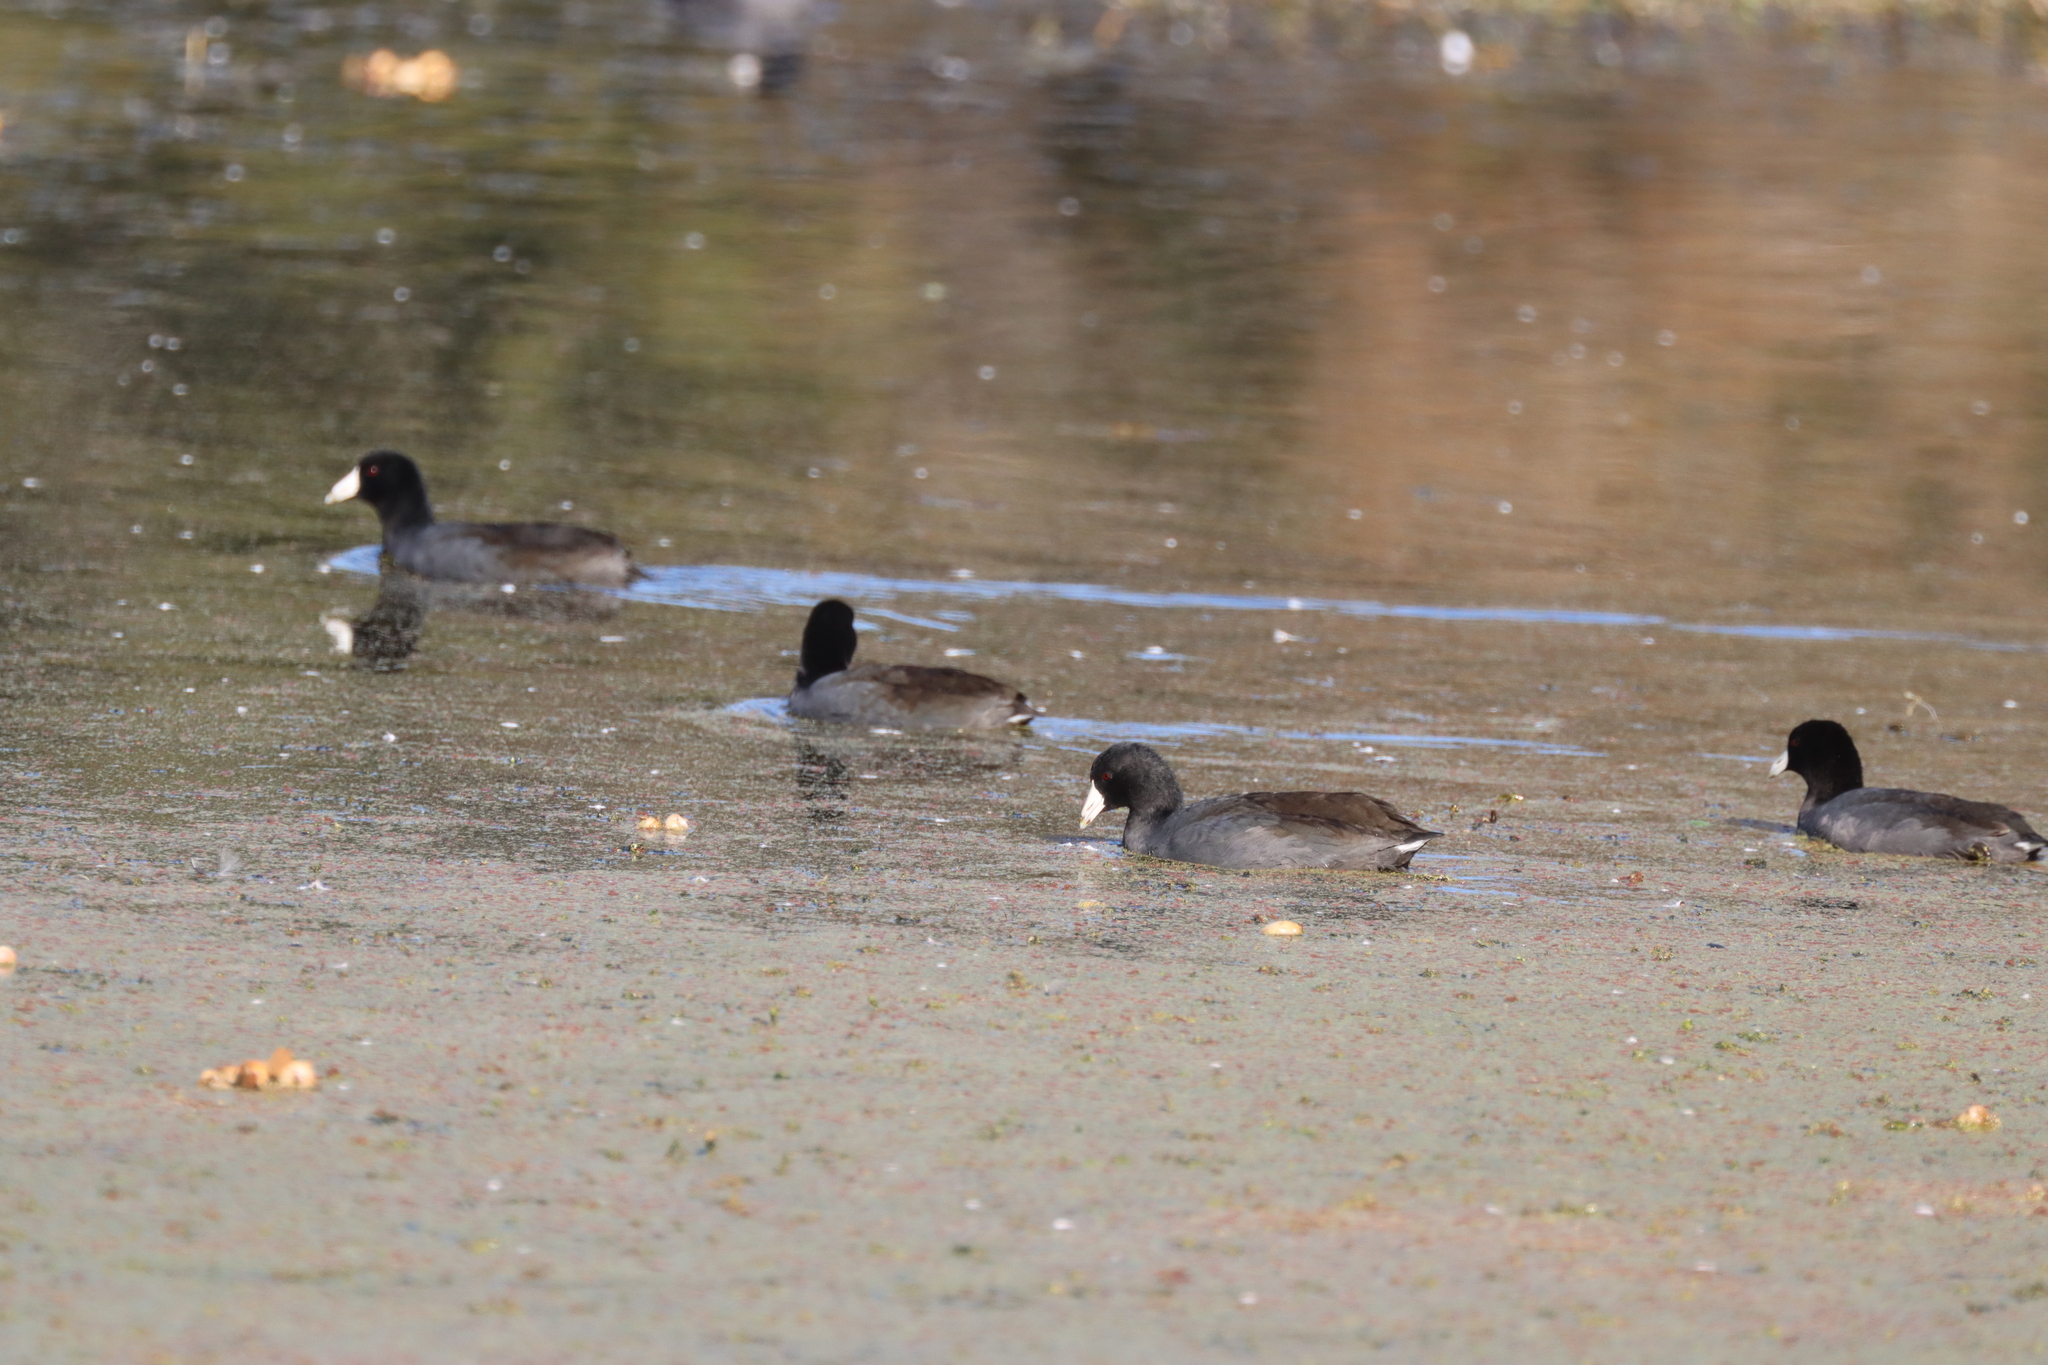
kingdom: Animalia
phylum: Chordata
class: Aves
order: Gruiformes
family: Rallidae
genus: Fulica
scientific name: Fulica americana
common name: American coot
